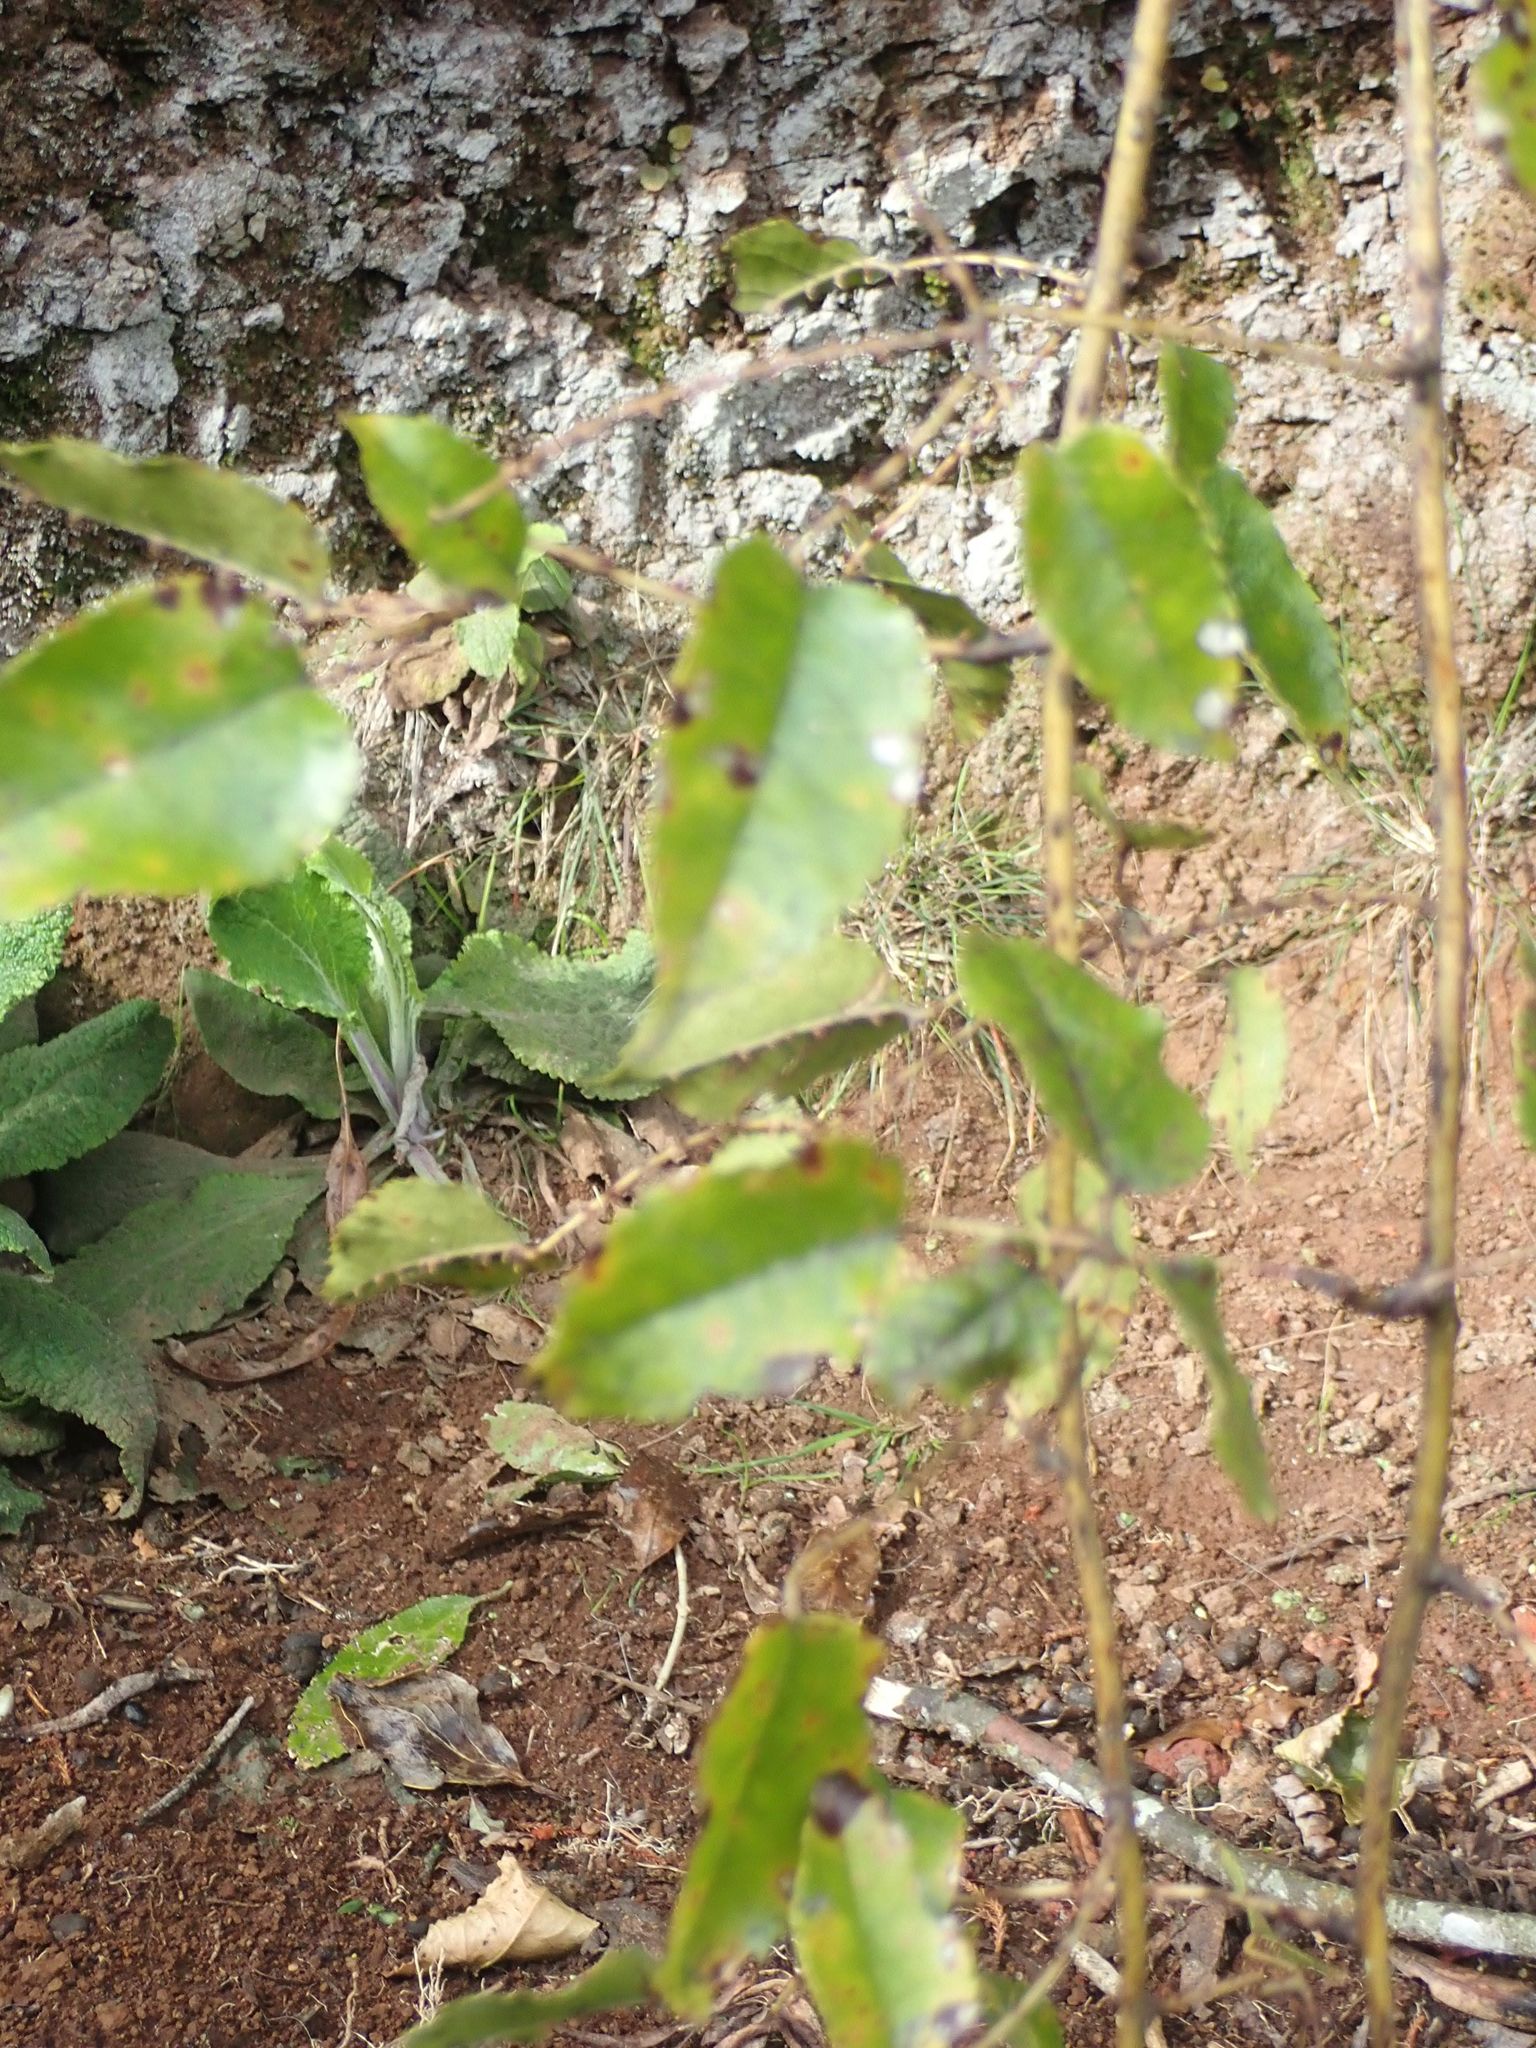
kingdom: Plantae
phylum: Tracheophyta
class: Magnoliopsida
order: Rosales
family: Rosaceae
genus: Rubus
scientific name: Rubus cissoides
